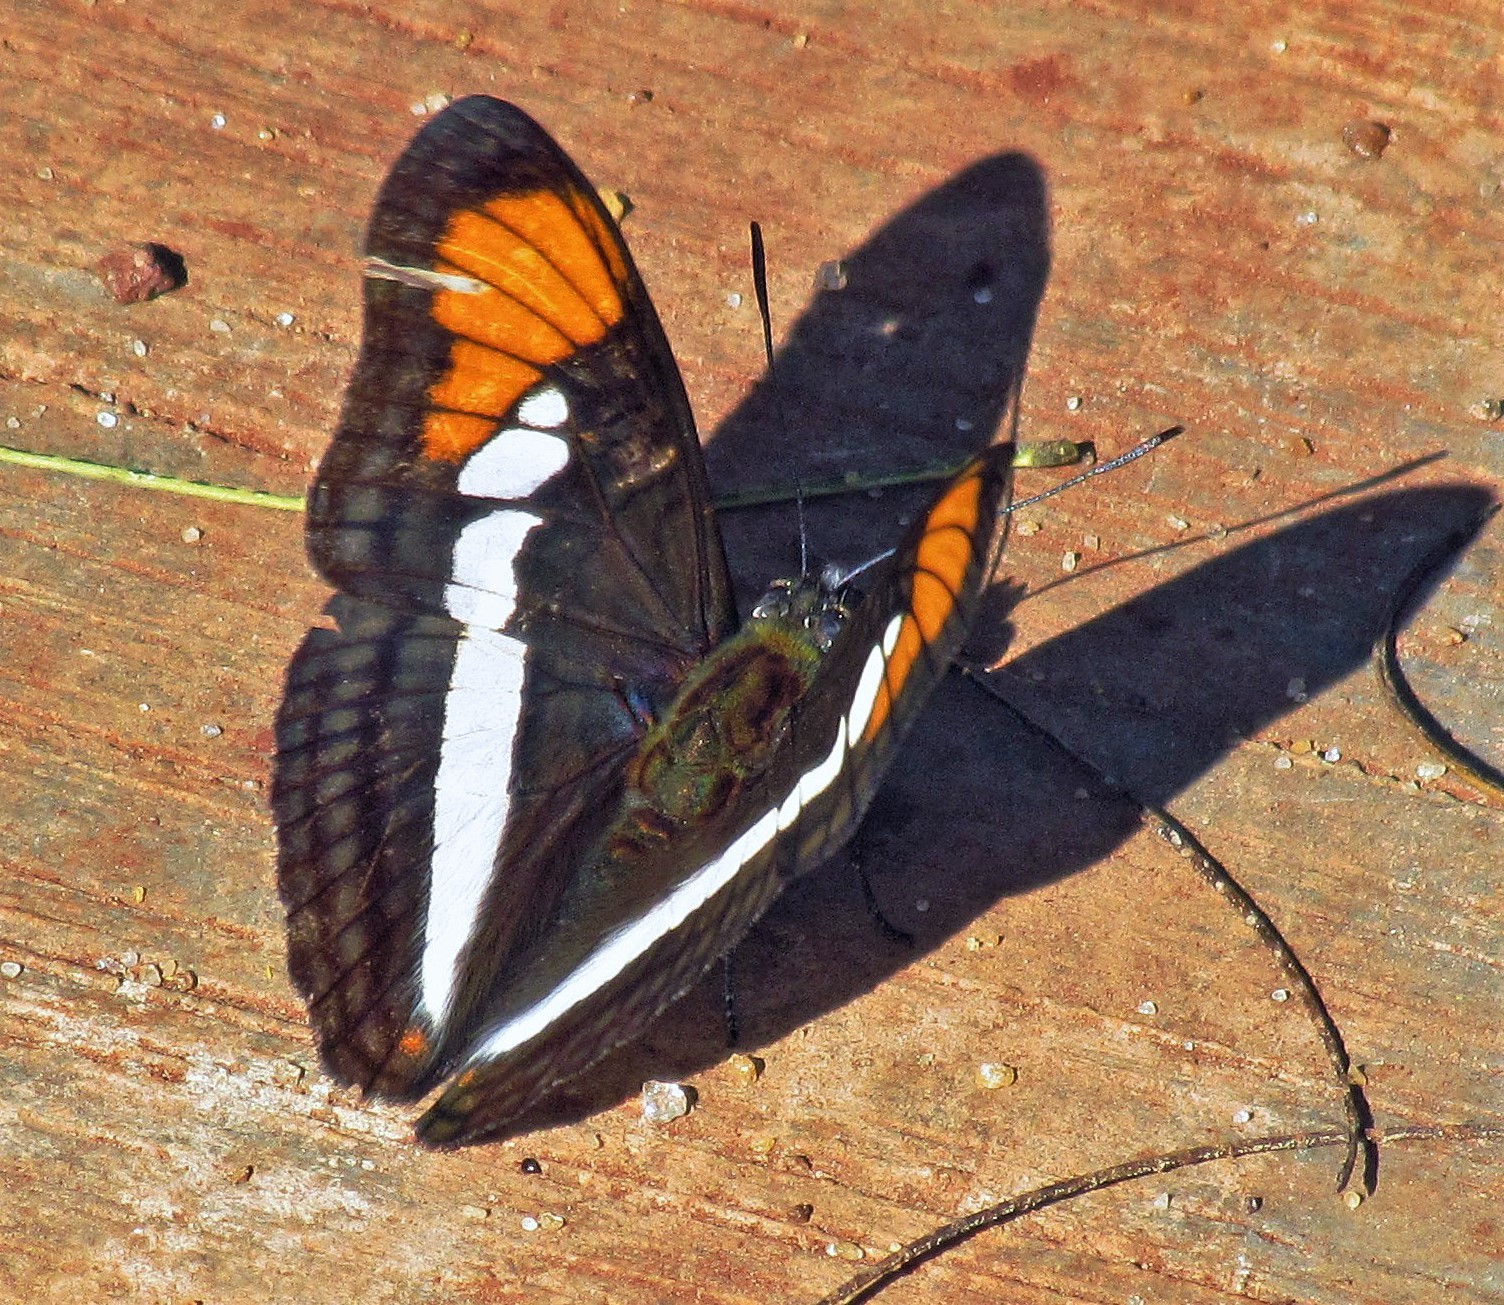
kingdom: Animalia
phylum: Arthropoda
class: Insecta
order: Lepidoptera
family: Nymphalidae
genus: Limenitis
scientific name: Limenitis serpa
